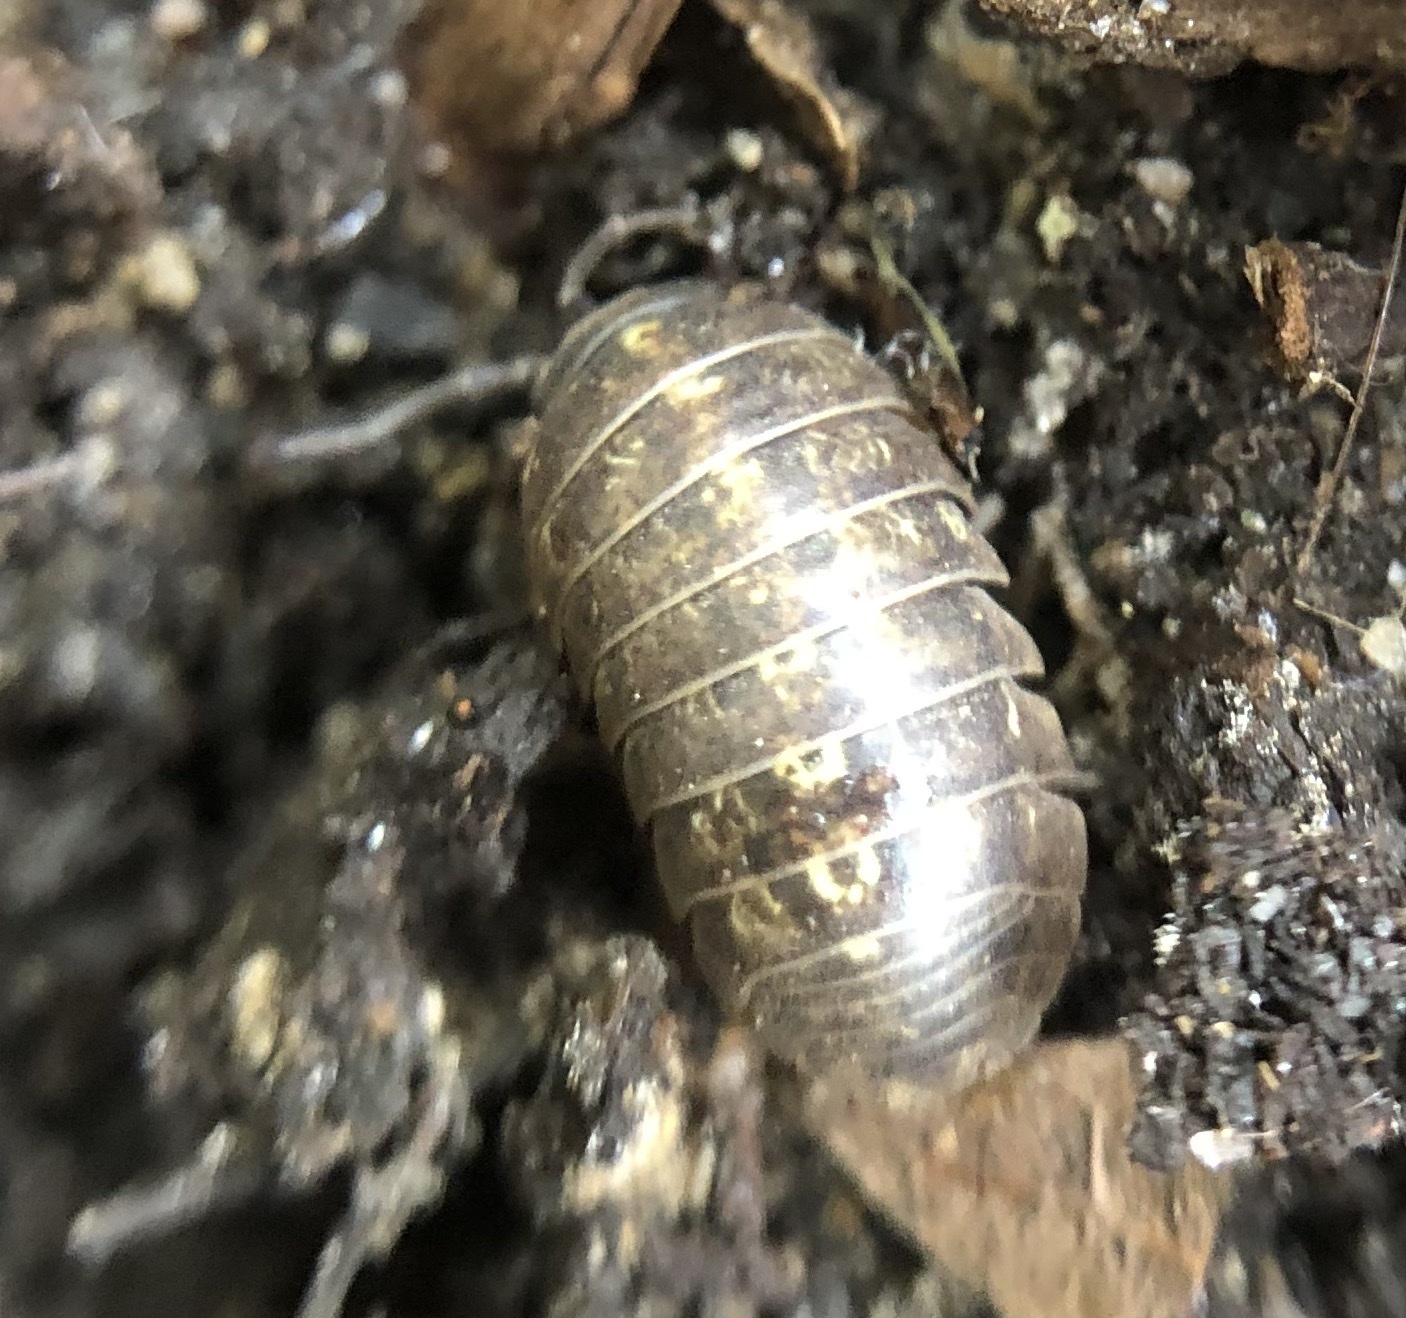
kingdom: Animalia
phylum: Arthropoda
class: Malacostraca
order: Isopoda
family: Armadillidiidae
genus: Armadillidium
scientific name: Armadillidium vulgare
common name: Common pill woodlouse
